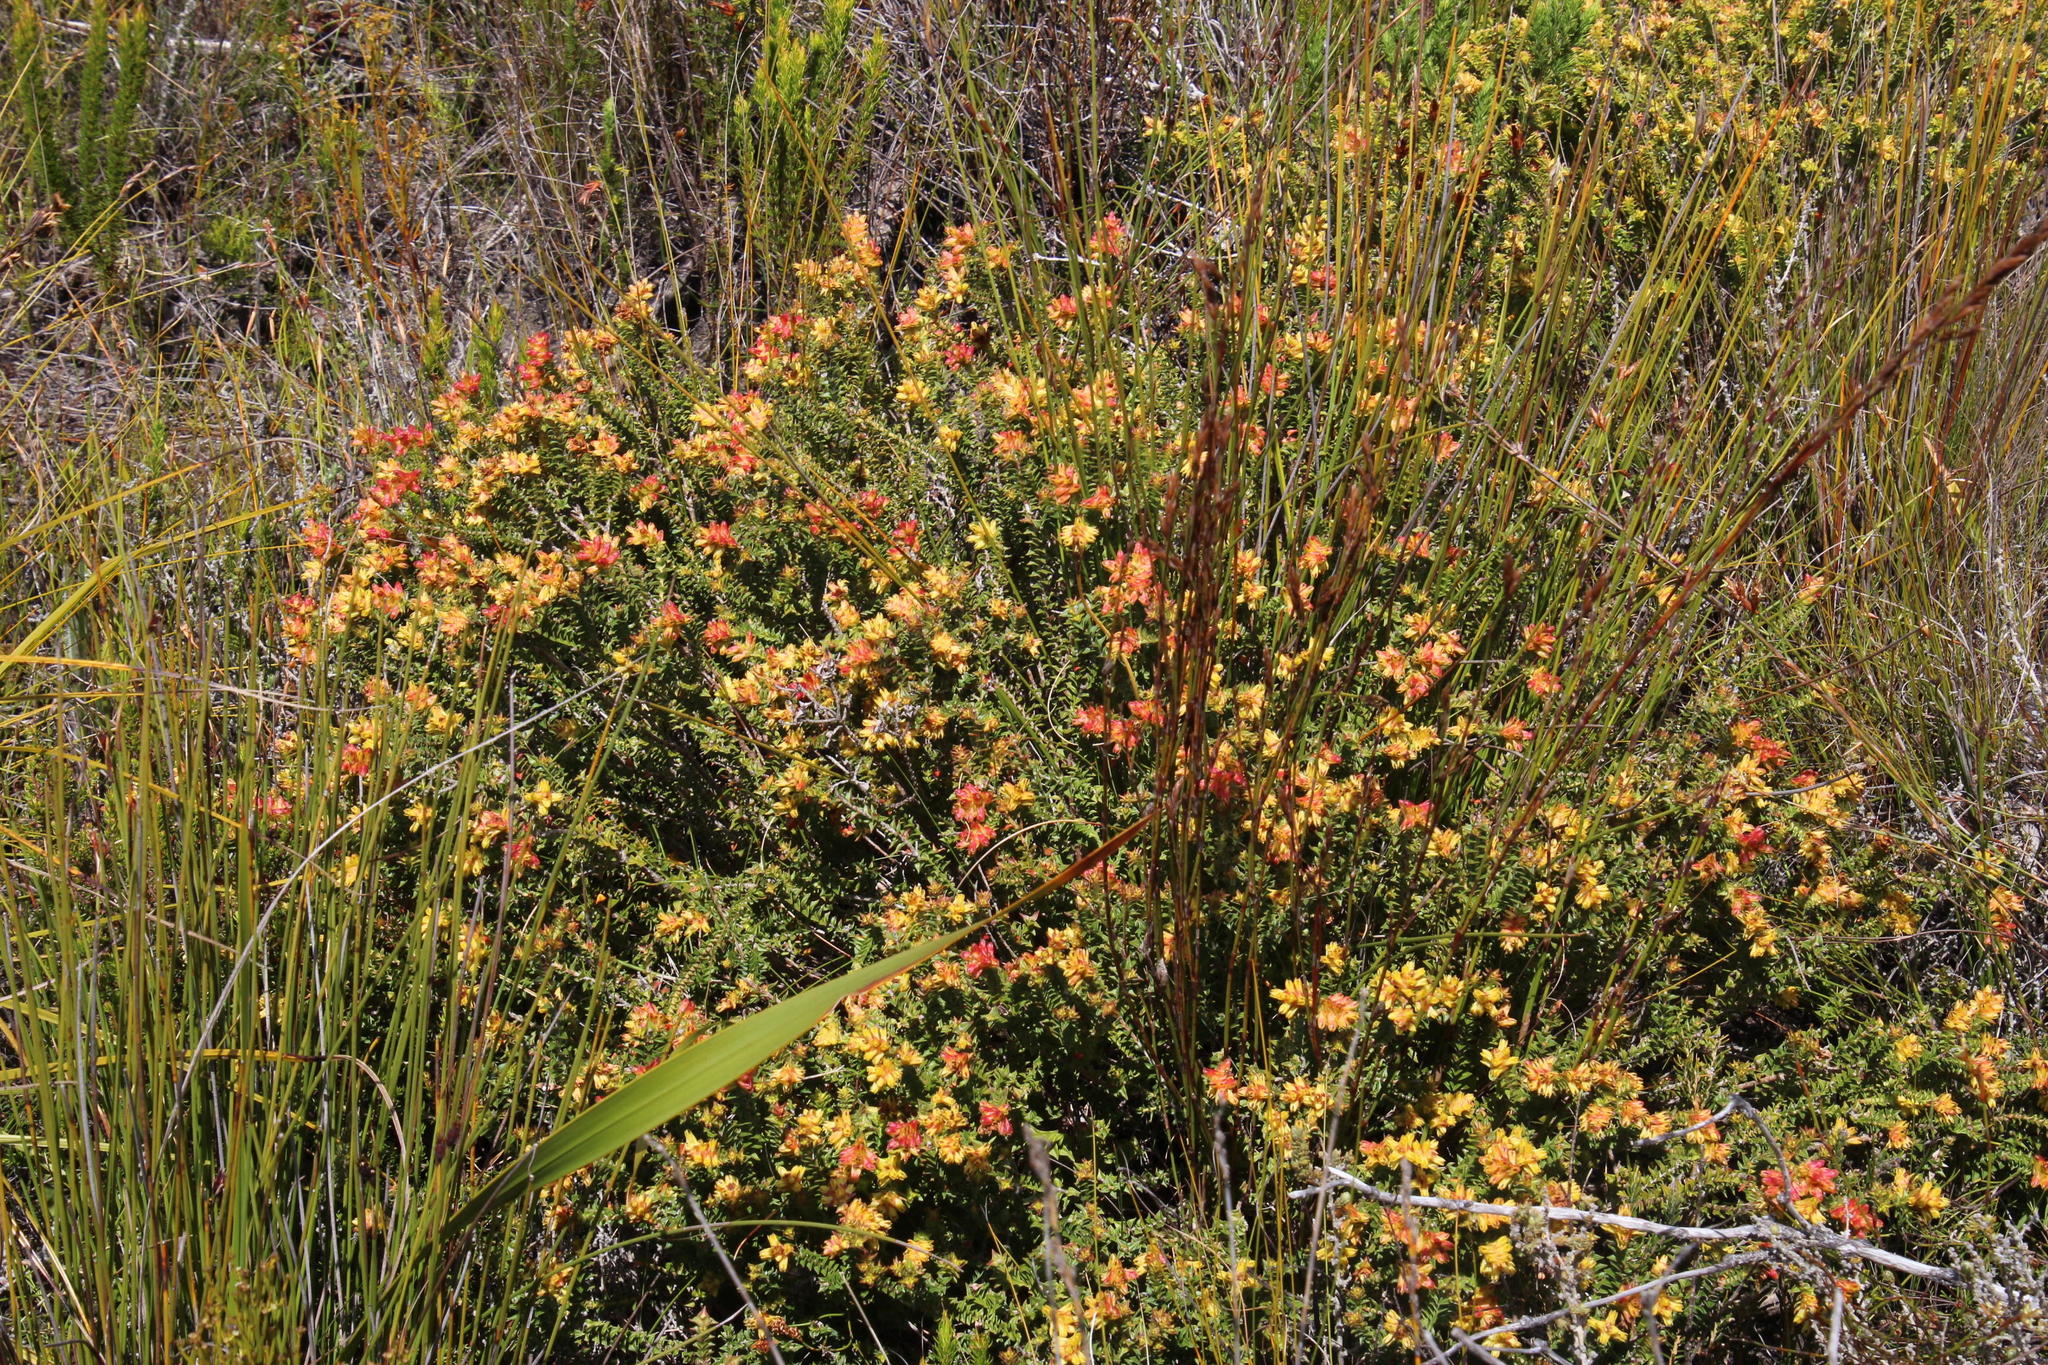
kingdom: Plantae
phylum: Tracheophyta
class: Magnoliopsida
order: Myrtales
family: Penaeaceae
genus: Penaea
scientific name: Penaea mucronata
